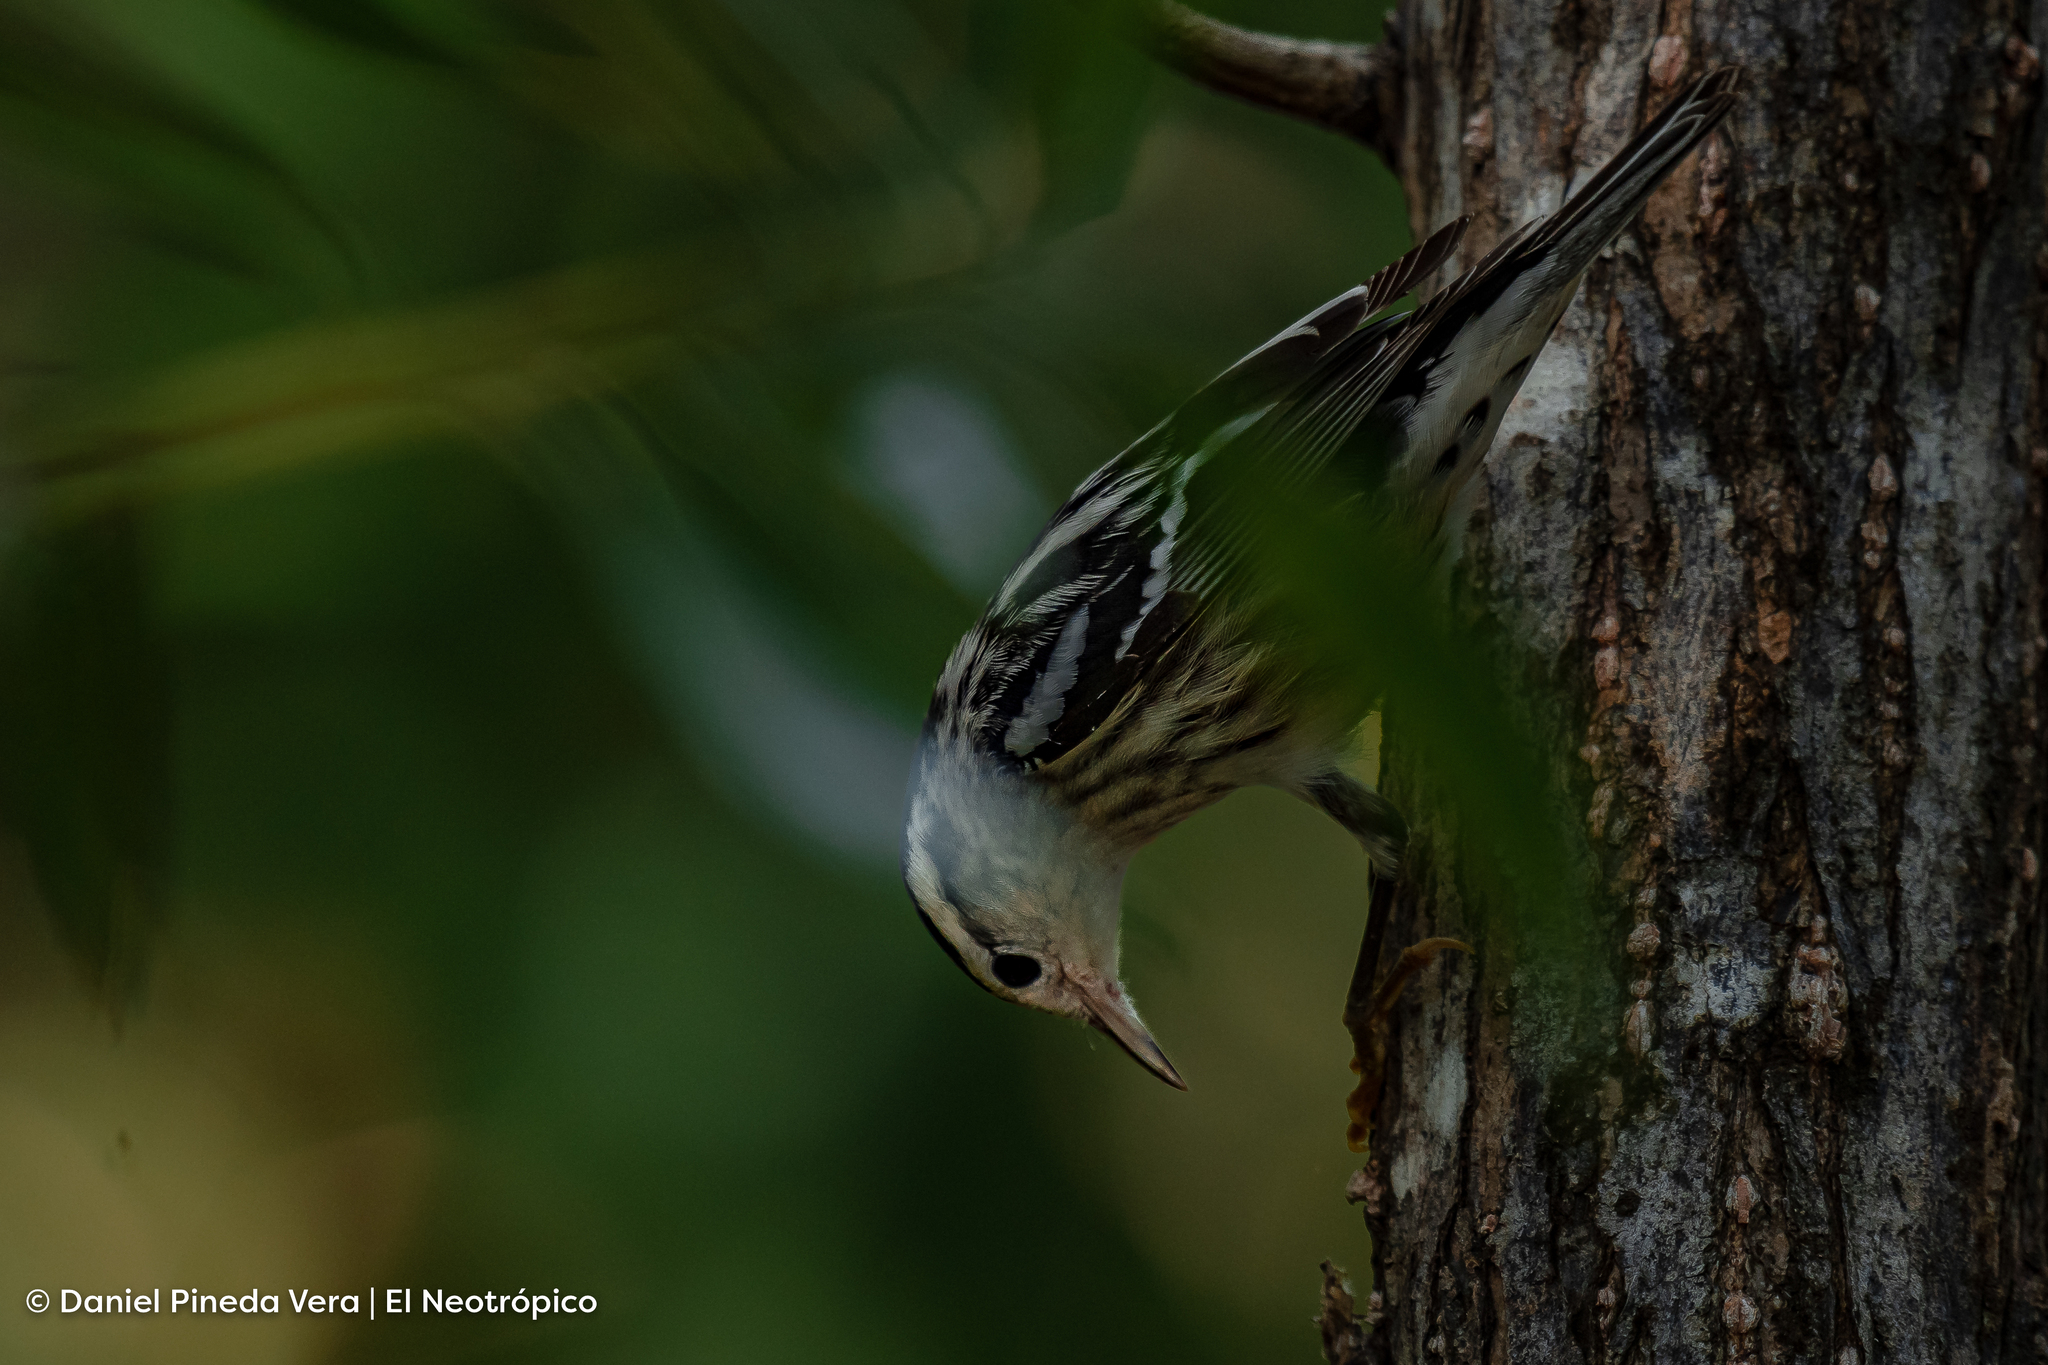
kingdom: Animalia
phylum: Chordata
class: Aves
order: Passeriformes
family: Parulidae
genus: Mniotilta
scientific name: Mniotilta varia
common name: Black-and-white warbler
